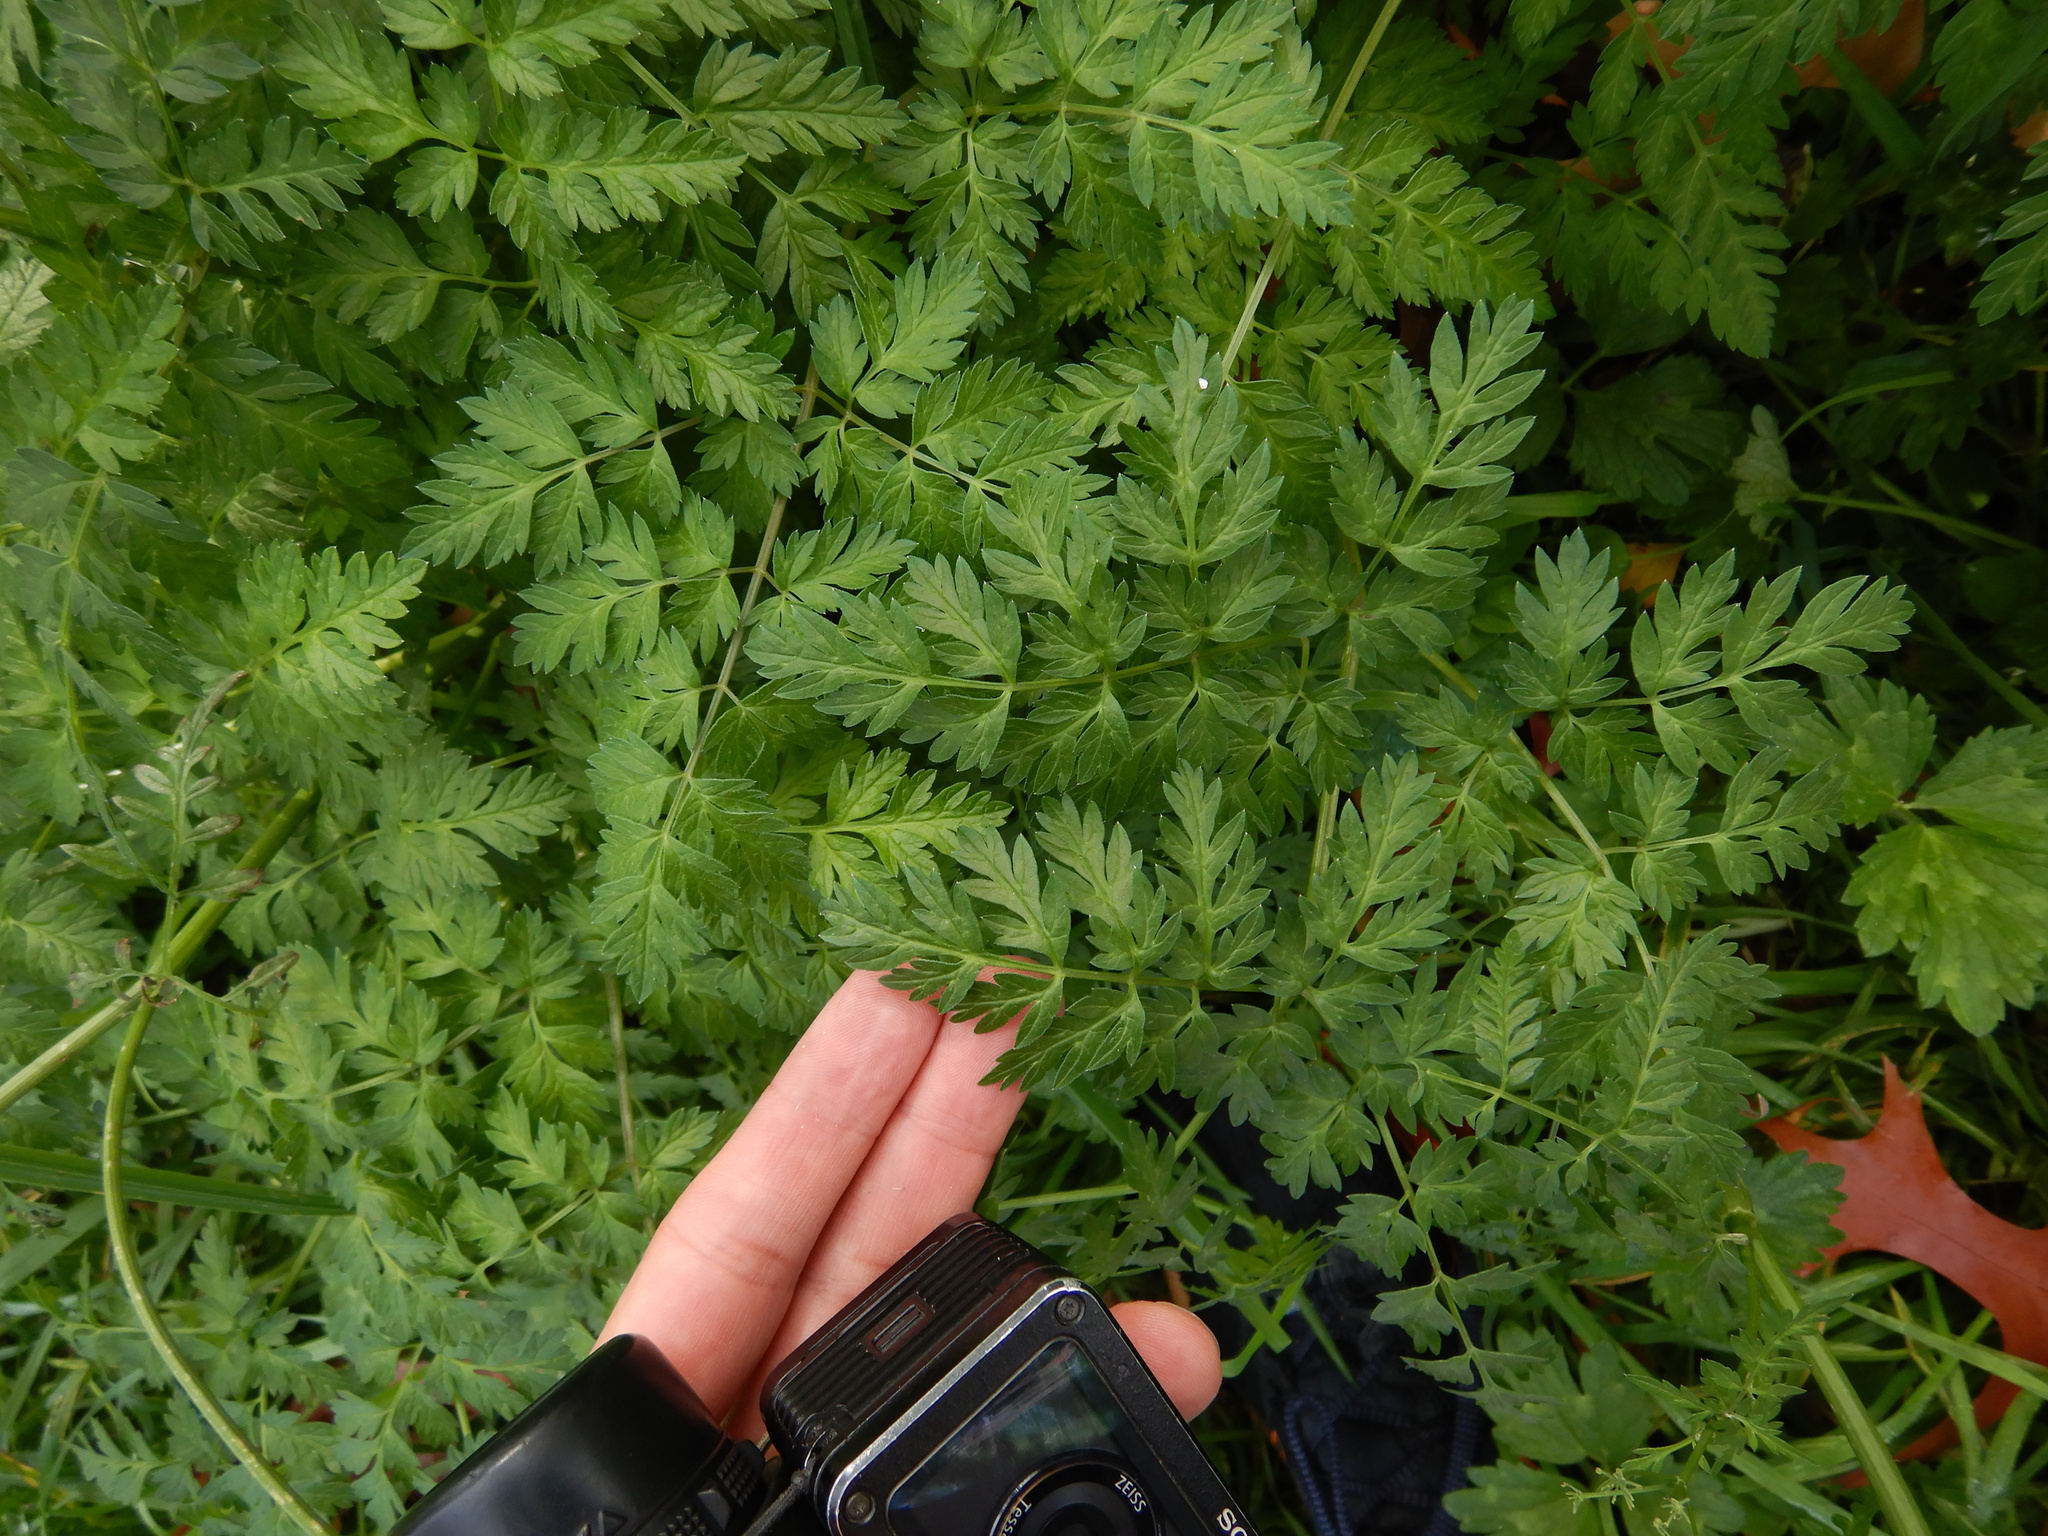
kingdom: Plantae
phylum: Tracheophyta
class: Magnoliopsida
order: Apiales
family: Apiaceae
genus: Anthriscus
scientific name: Anthriscus sylvestris
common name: Cow parsley
